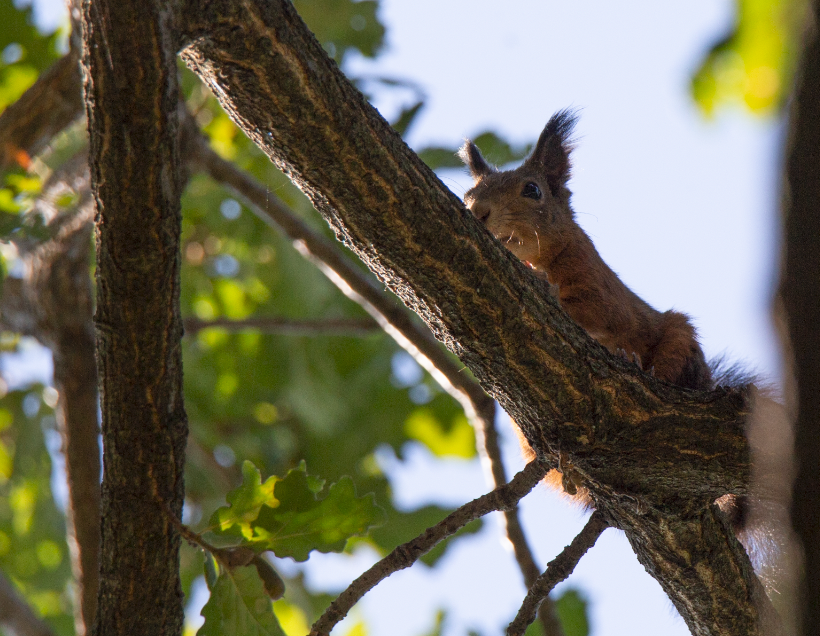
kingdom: Animalia
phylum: Chordata
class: Mammalia
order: Rodentia
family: Sciuridae
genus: Sciurus
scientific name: Sciurus vulgaris
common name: Eurasian red squirrel
